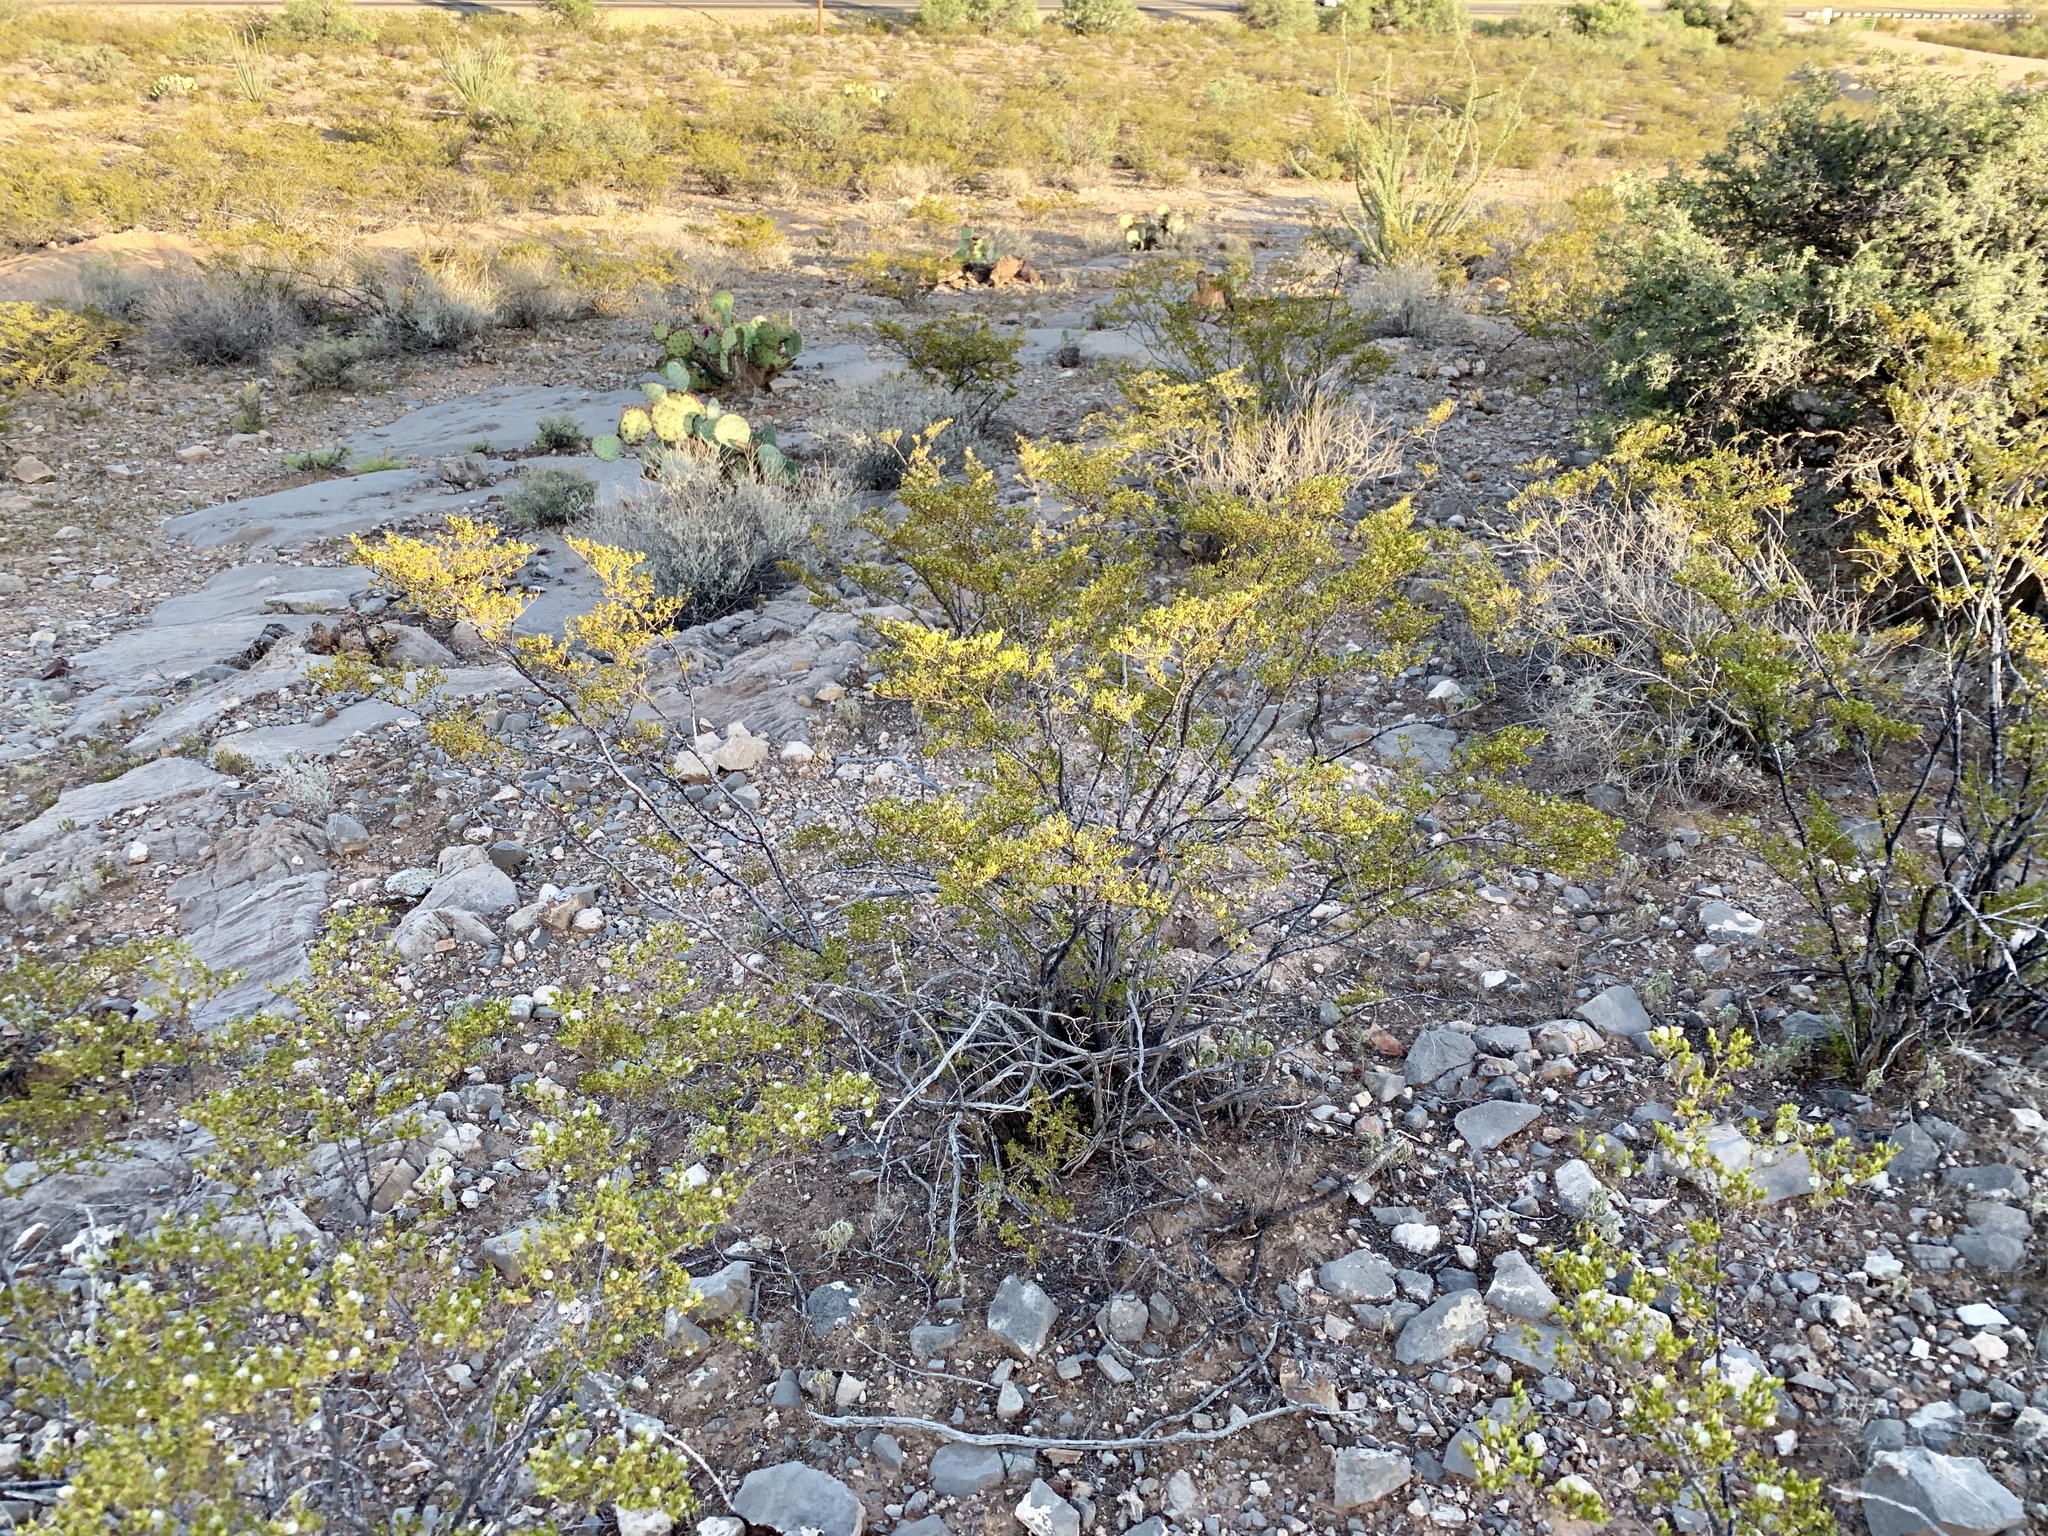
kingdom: Plantae
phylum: Tracheophyta
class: Magnoliopsida
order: Zygophyllales
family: Zygophyllaceae
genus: Larrea
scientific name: Larrea tridentata
